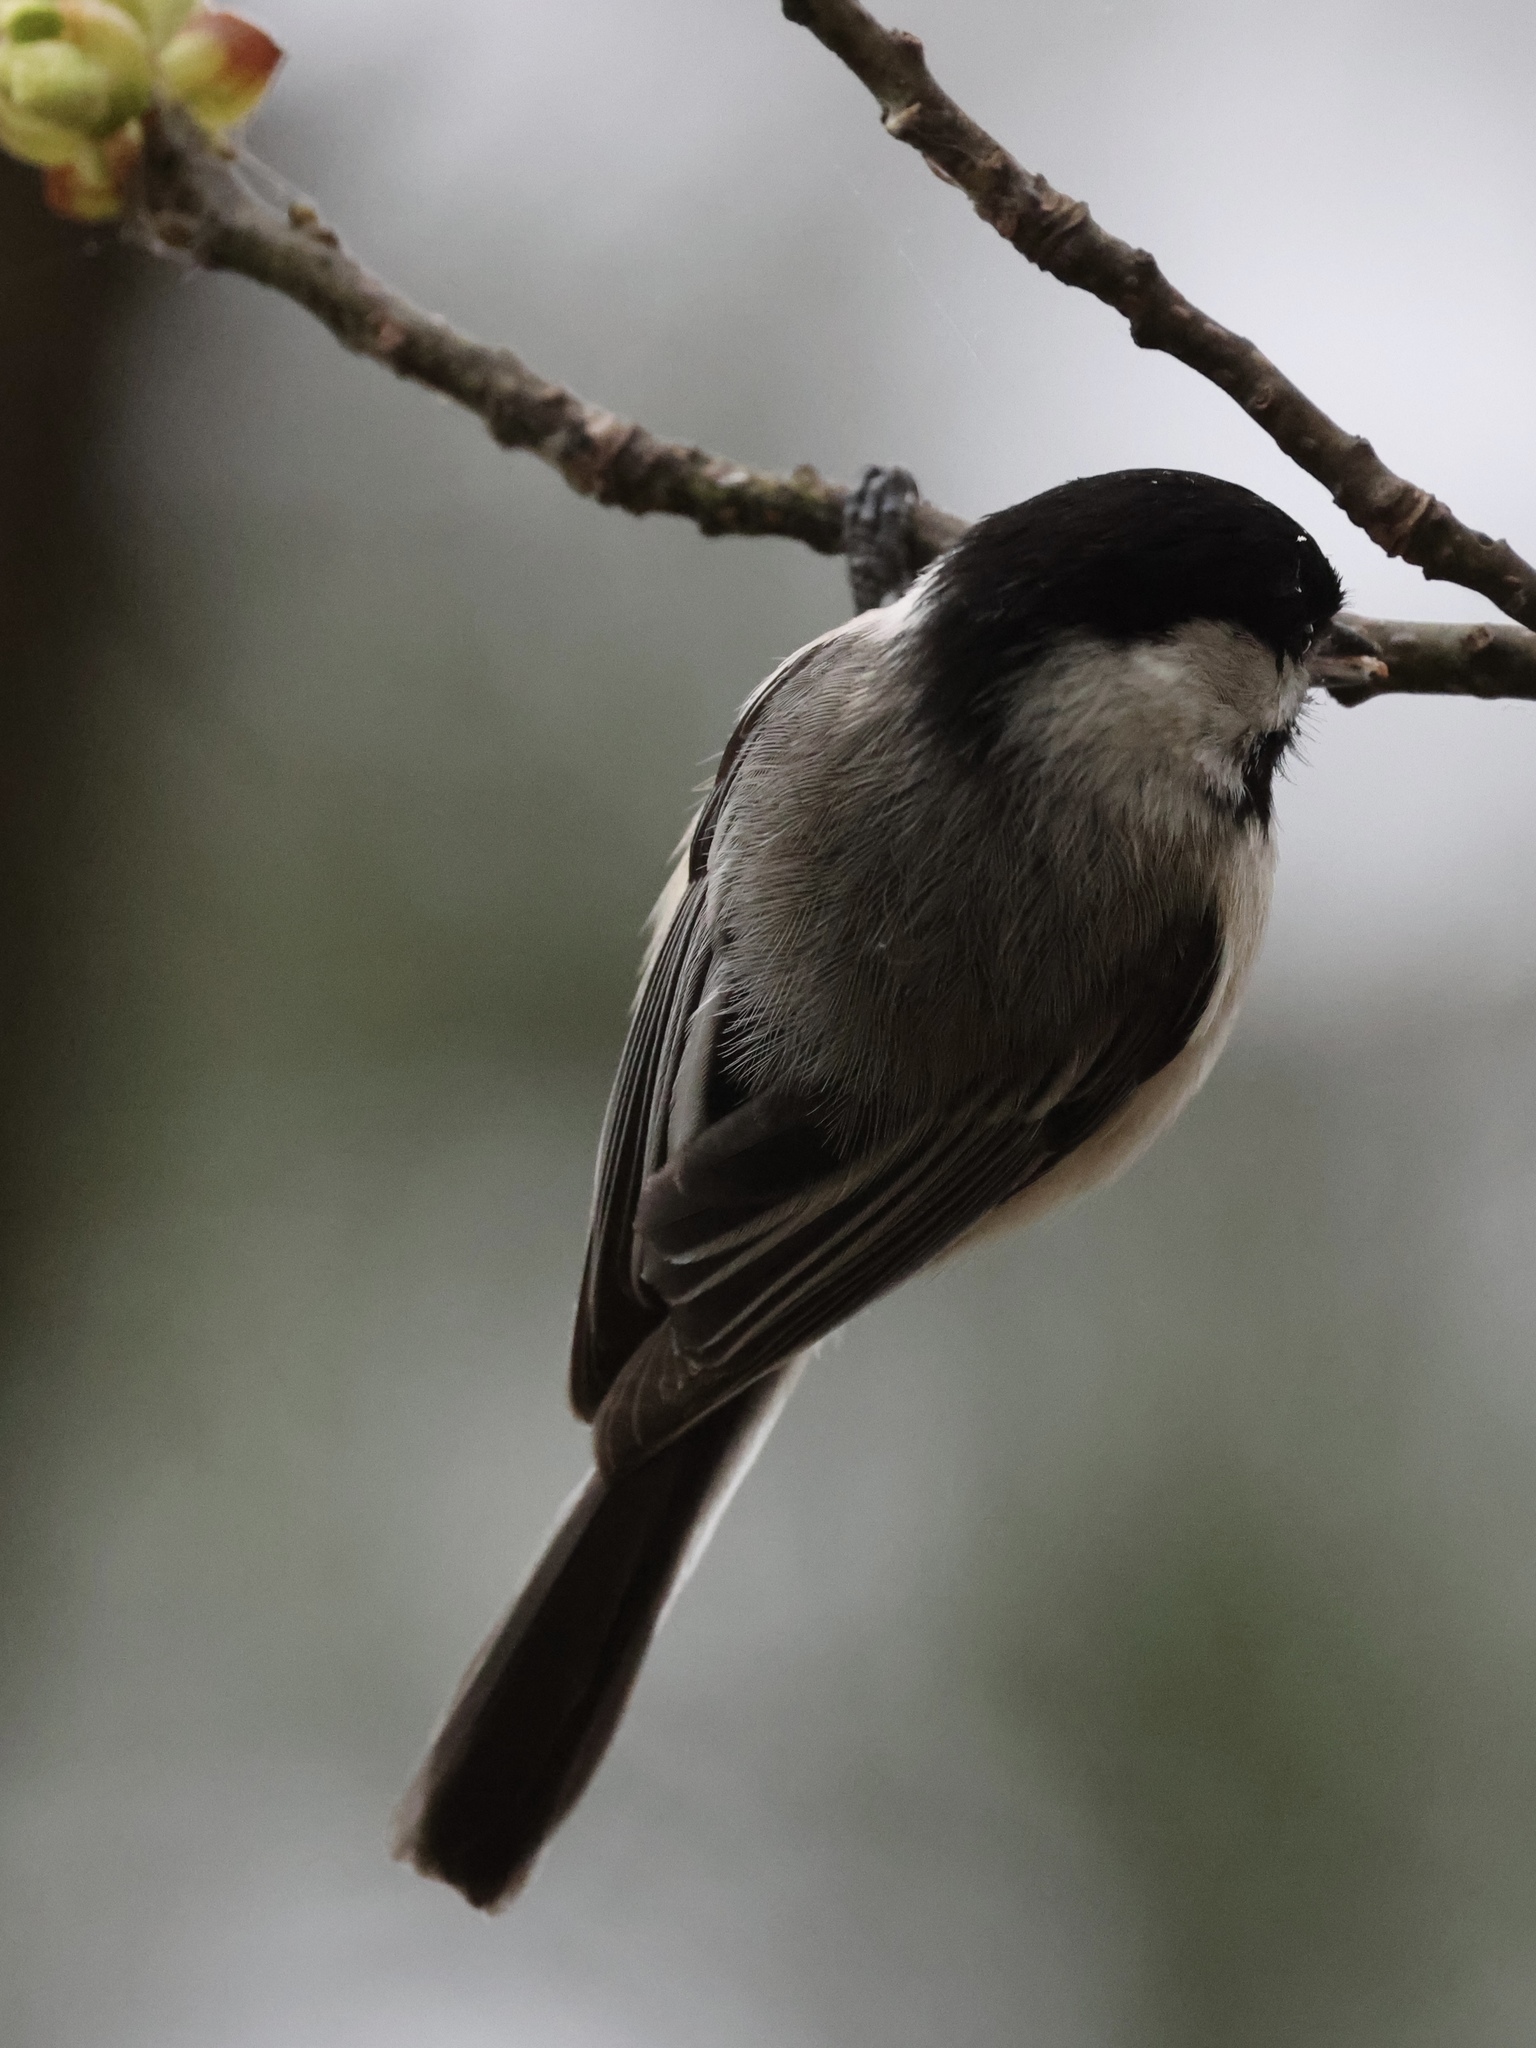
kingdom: Animalia
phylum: Chordata
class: Aves
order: Passeriformes
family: Paridae
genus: Poecile
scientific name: Poecile atricapillus
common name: Black-capped chickadee
